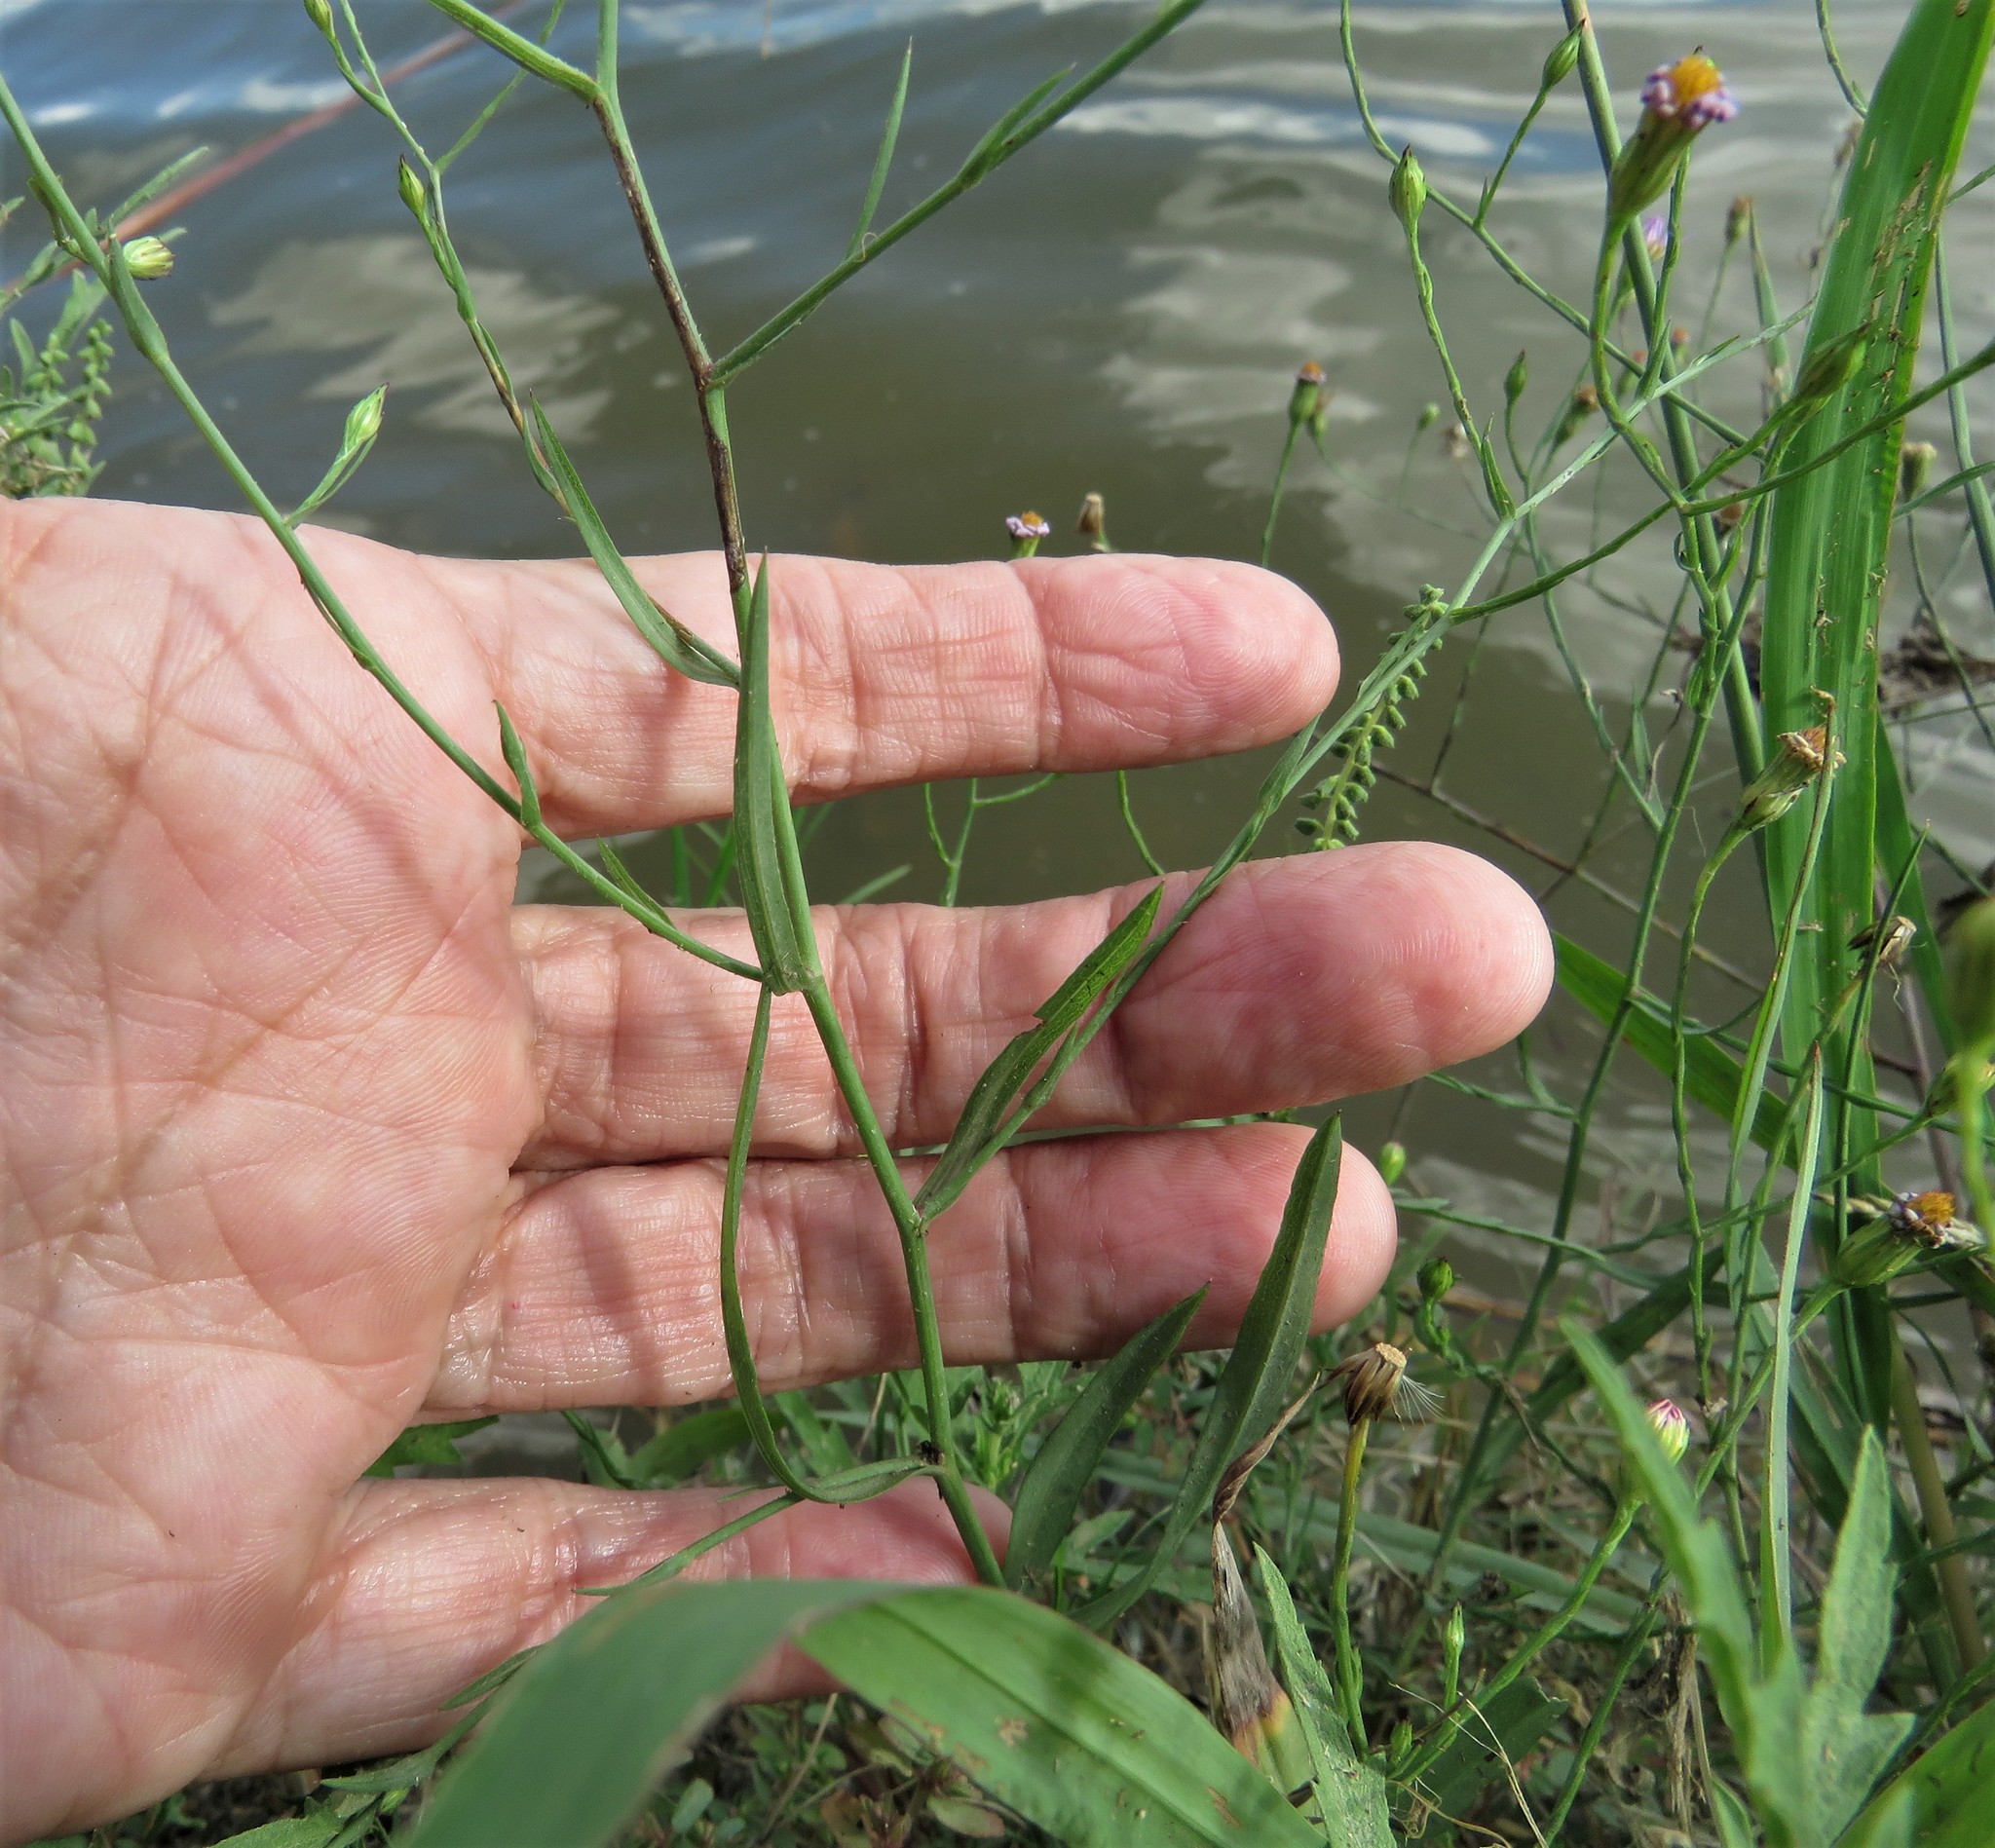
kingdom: Plantae
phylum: Tracheophyta
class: Magnoliopsida
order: Asterales
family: Asteraceae
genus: Symphyotrichum
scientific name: Symphyotrichum divaricatum
